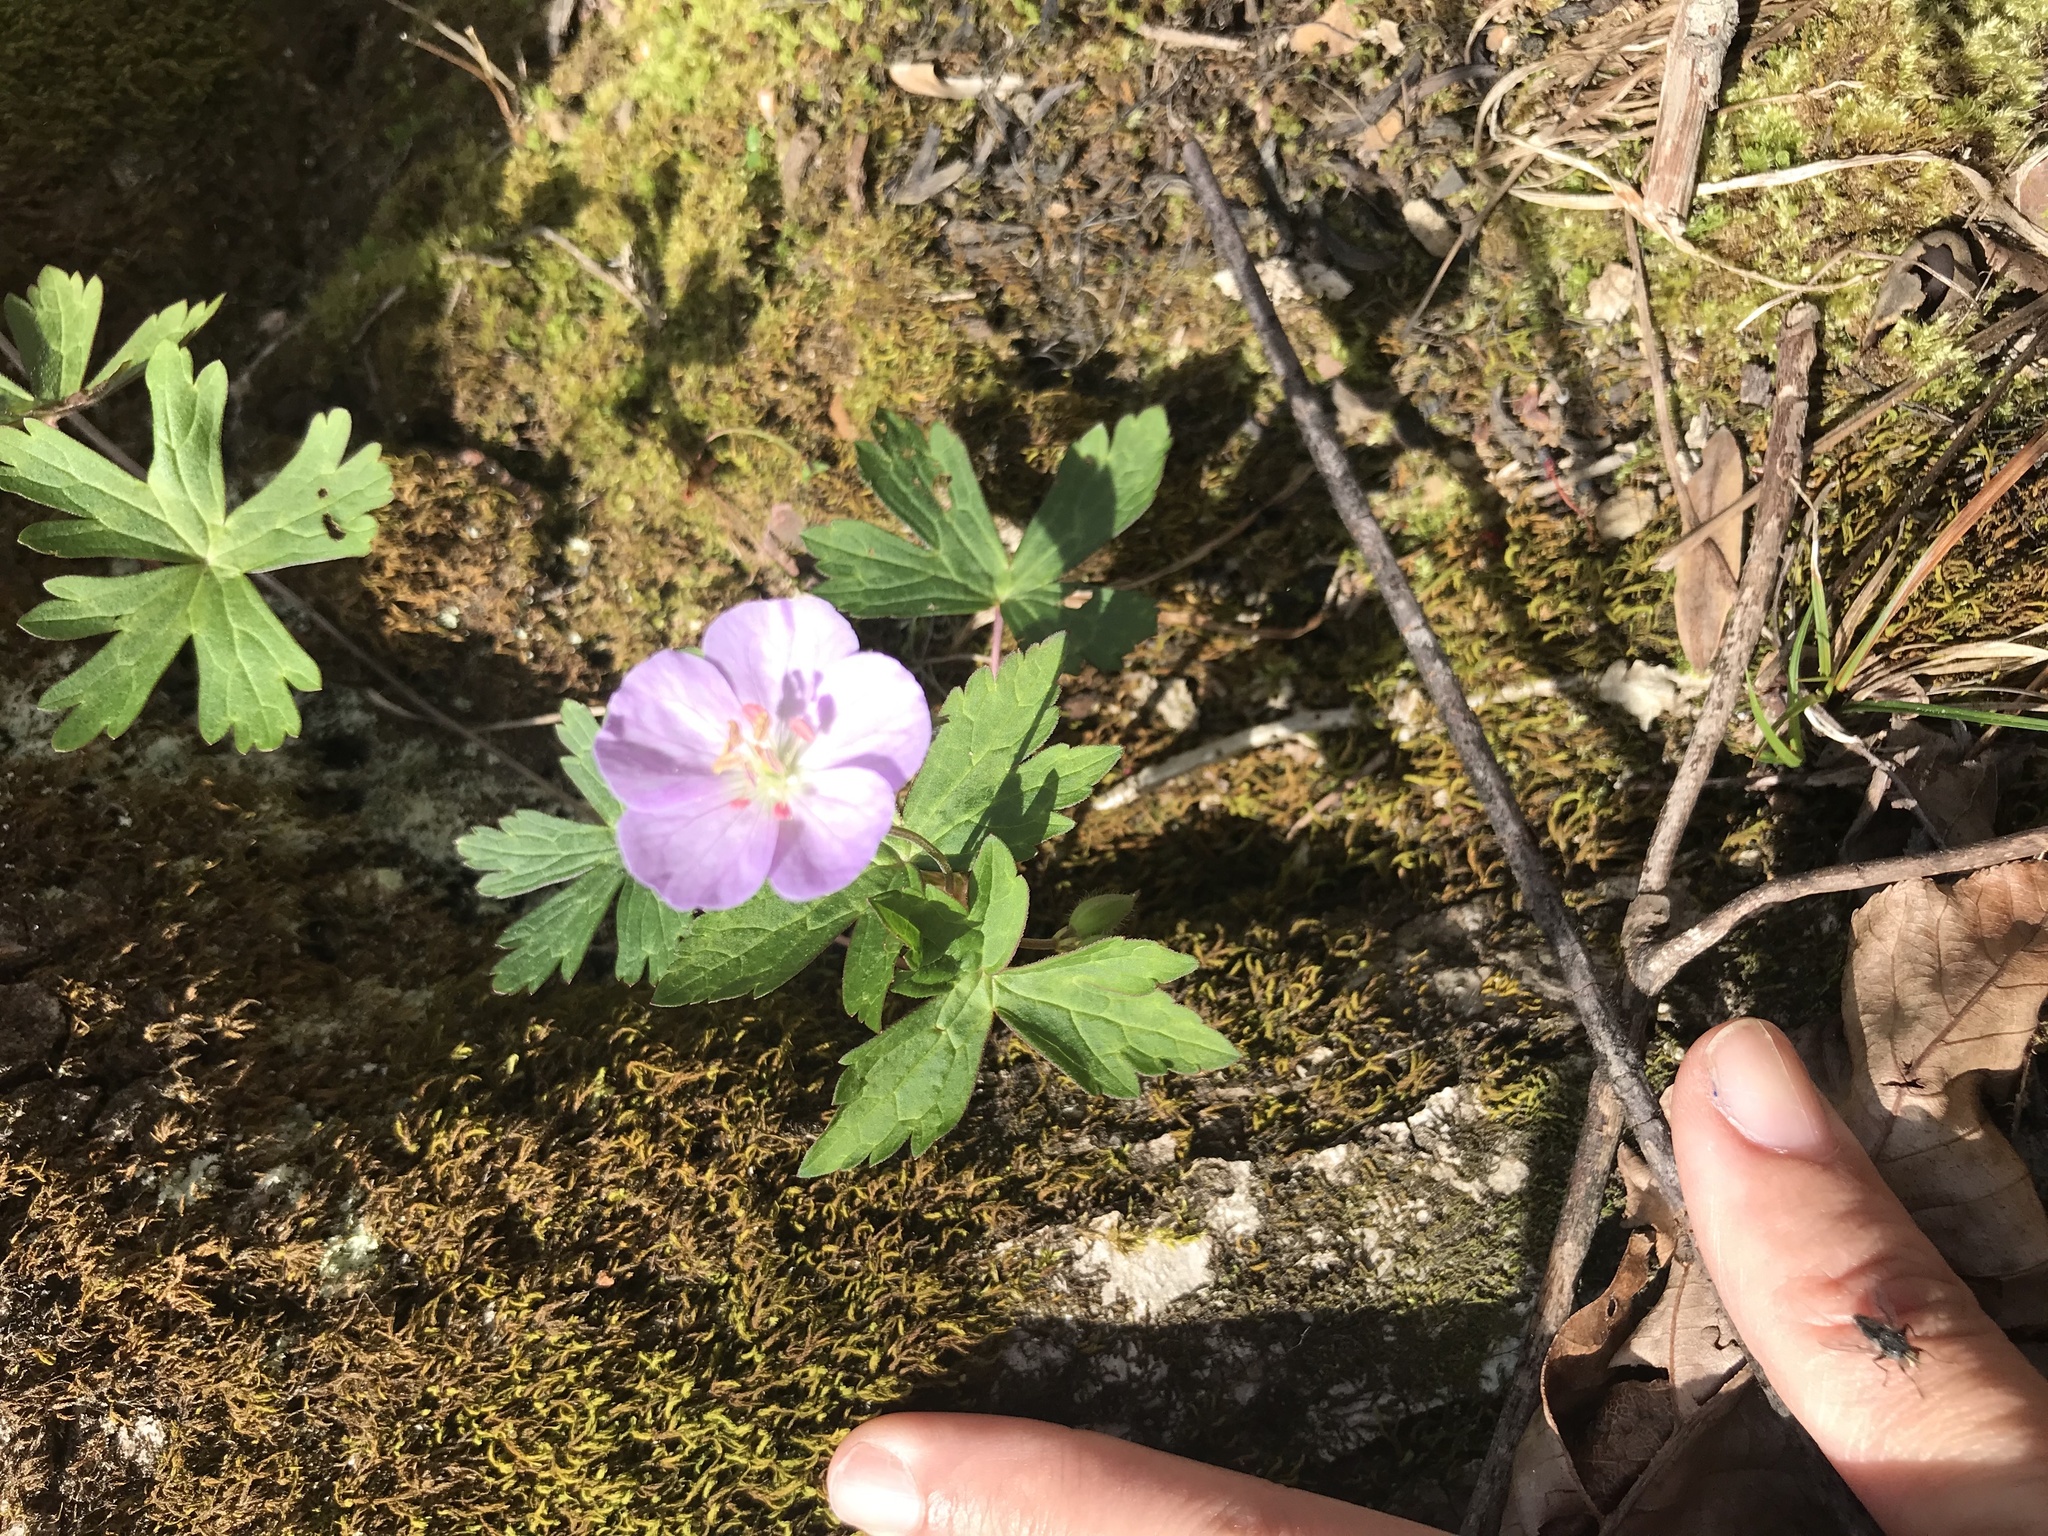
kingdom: Plantae
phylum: Tracheophyta
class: Magnoliopsida
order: Geraniales
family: Geraniaceae
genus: Geranium
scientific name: Geranium maculatum
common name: Spotted geranium
